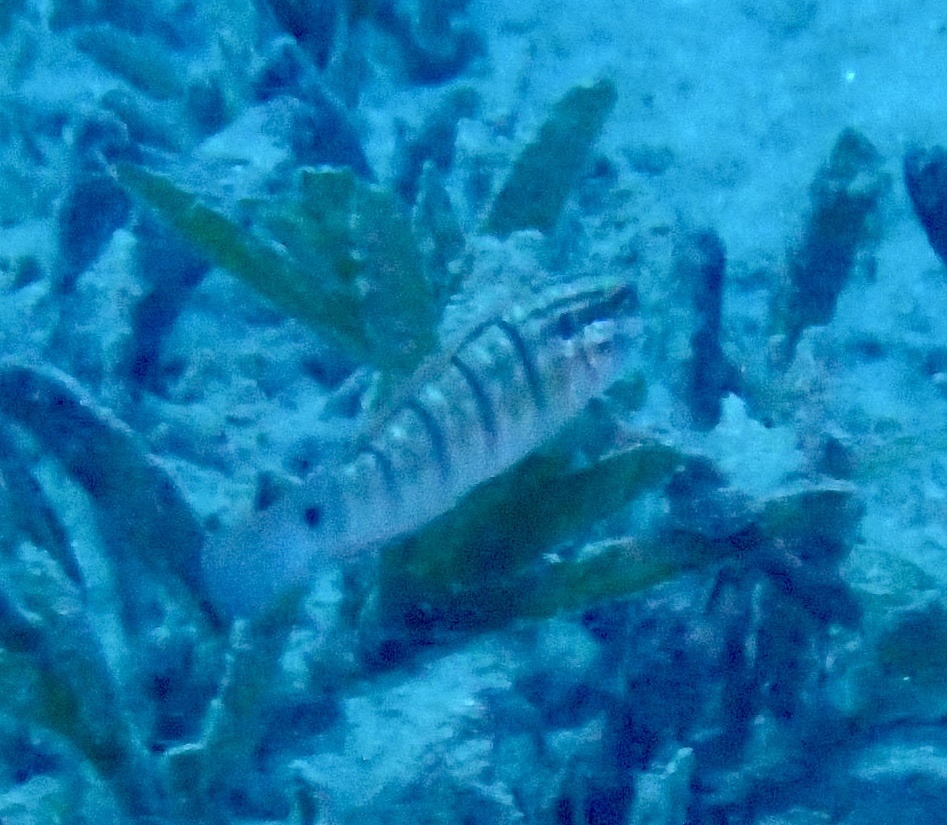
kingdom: Animalia
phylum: Chordata
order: Perciformes
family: Gobiidae
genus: Amblygobius
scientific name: Amblygobius albimaculatus
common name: Butterfly goby
